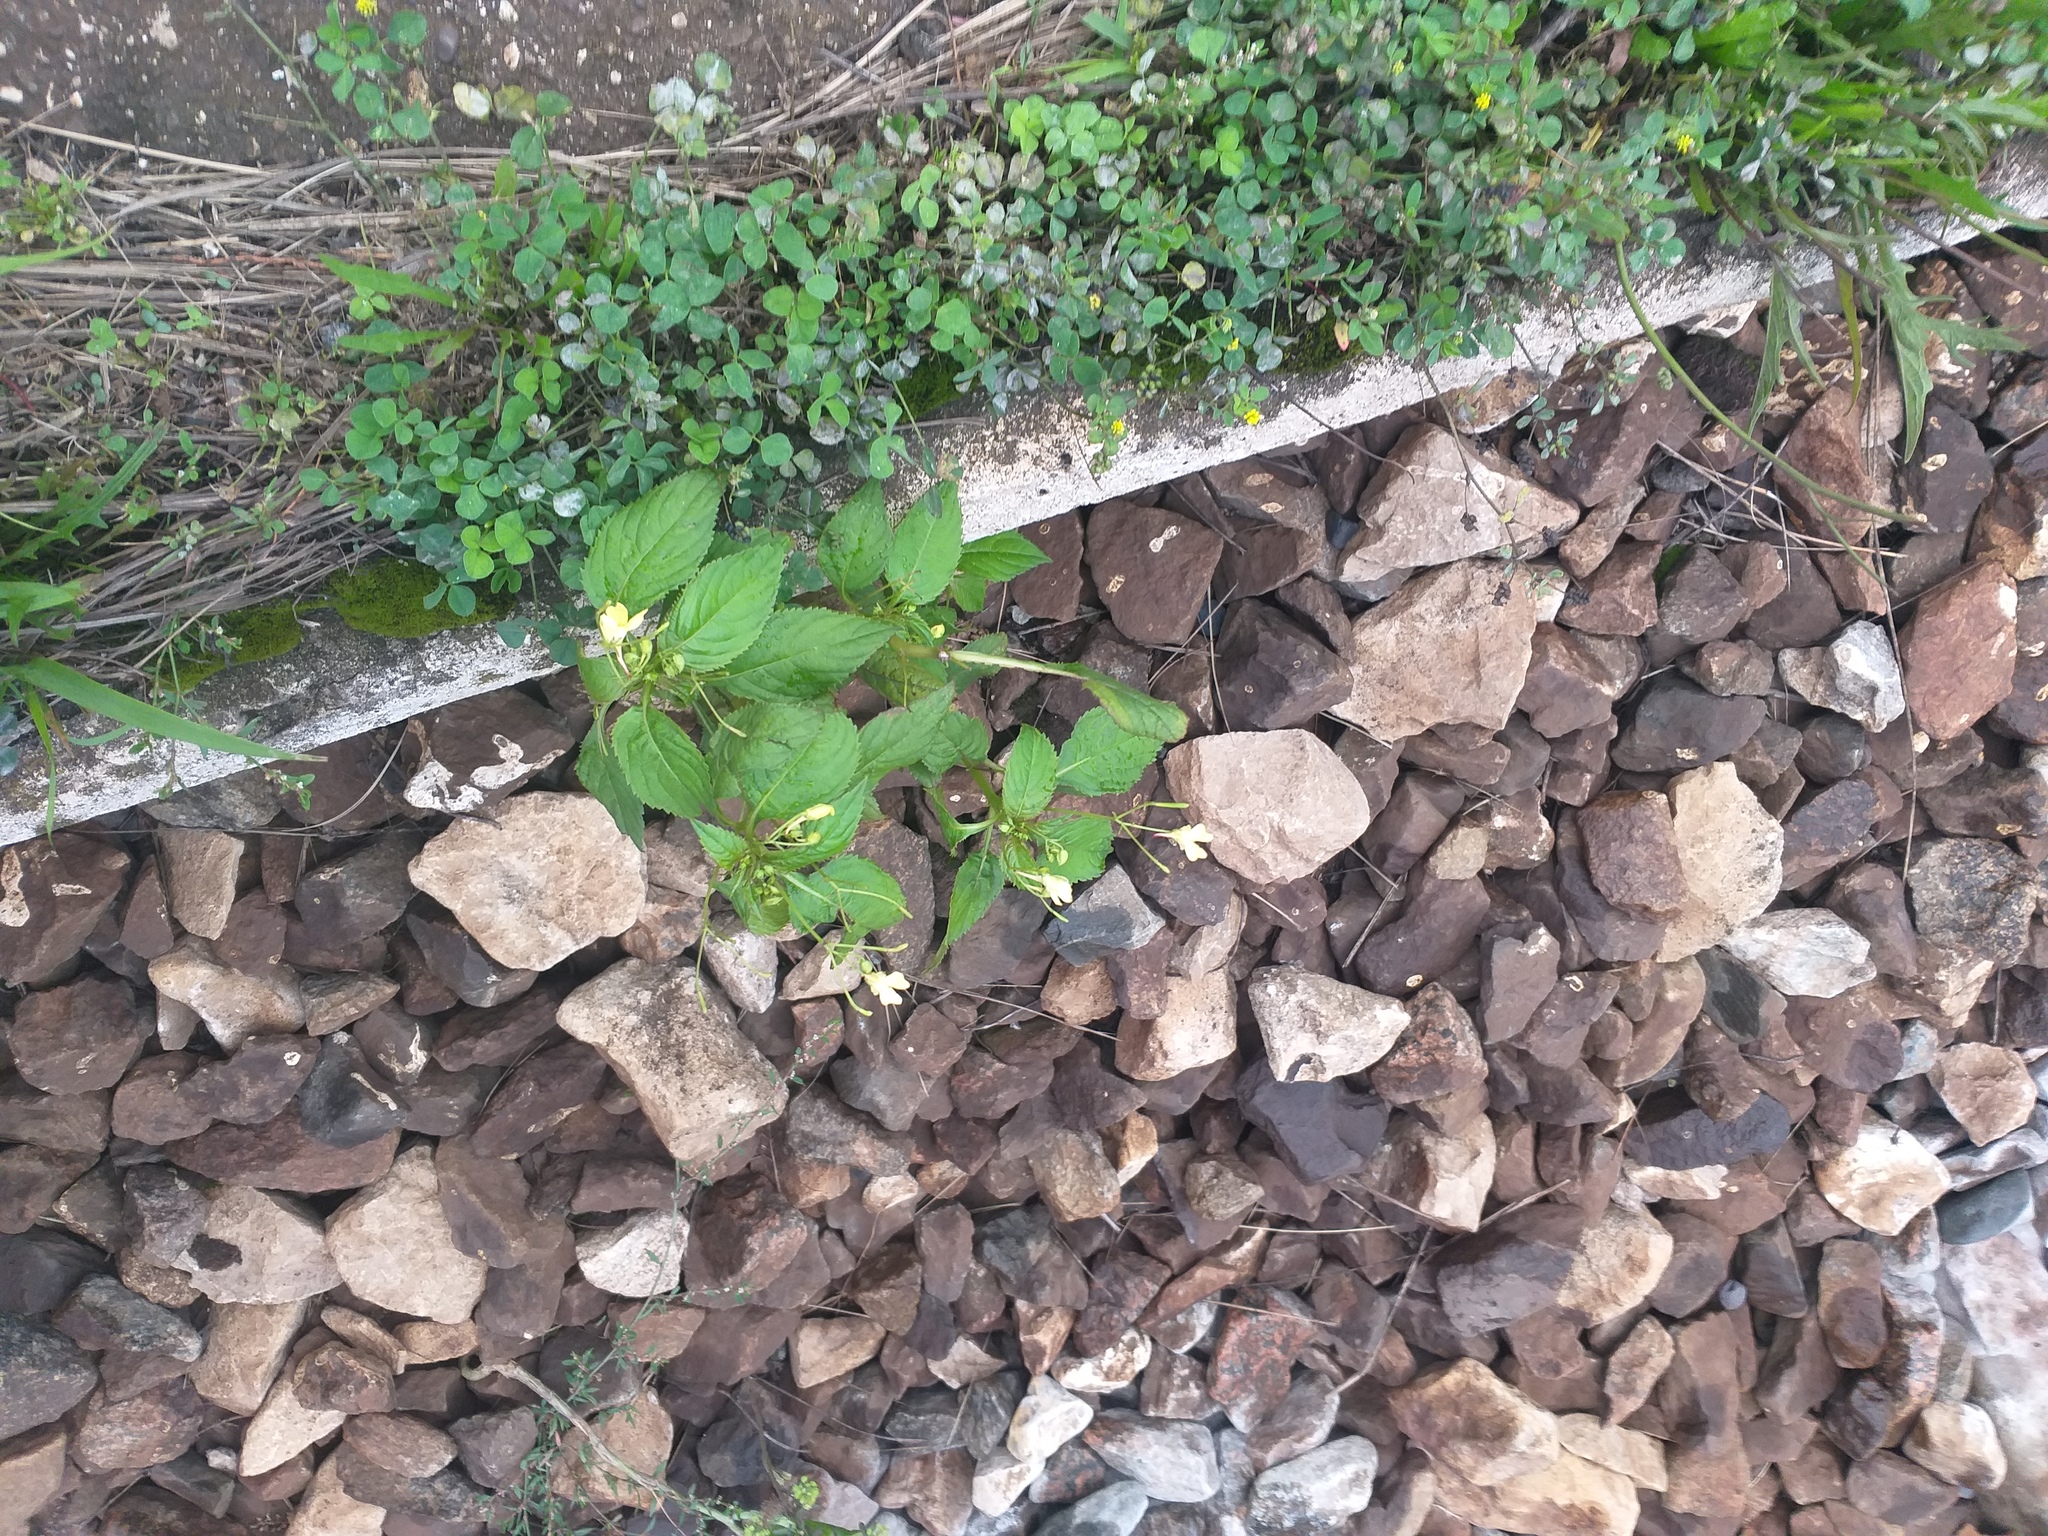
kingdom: Plantae
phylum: Tracheophyta
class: Magnoliopsida
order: Ericales
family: Balsaminaceae
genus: Impatiens
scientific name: Impatiens parviflora
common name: Small balsam
